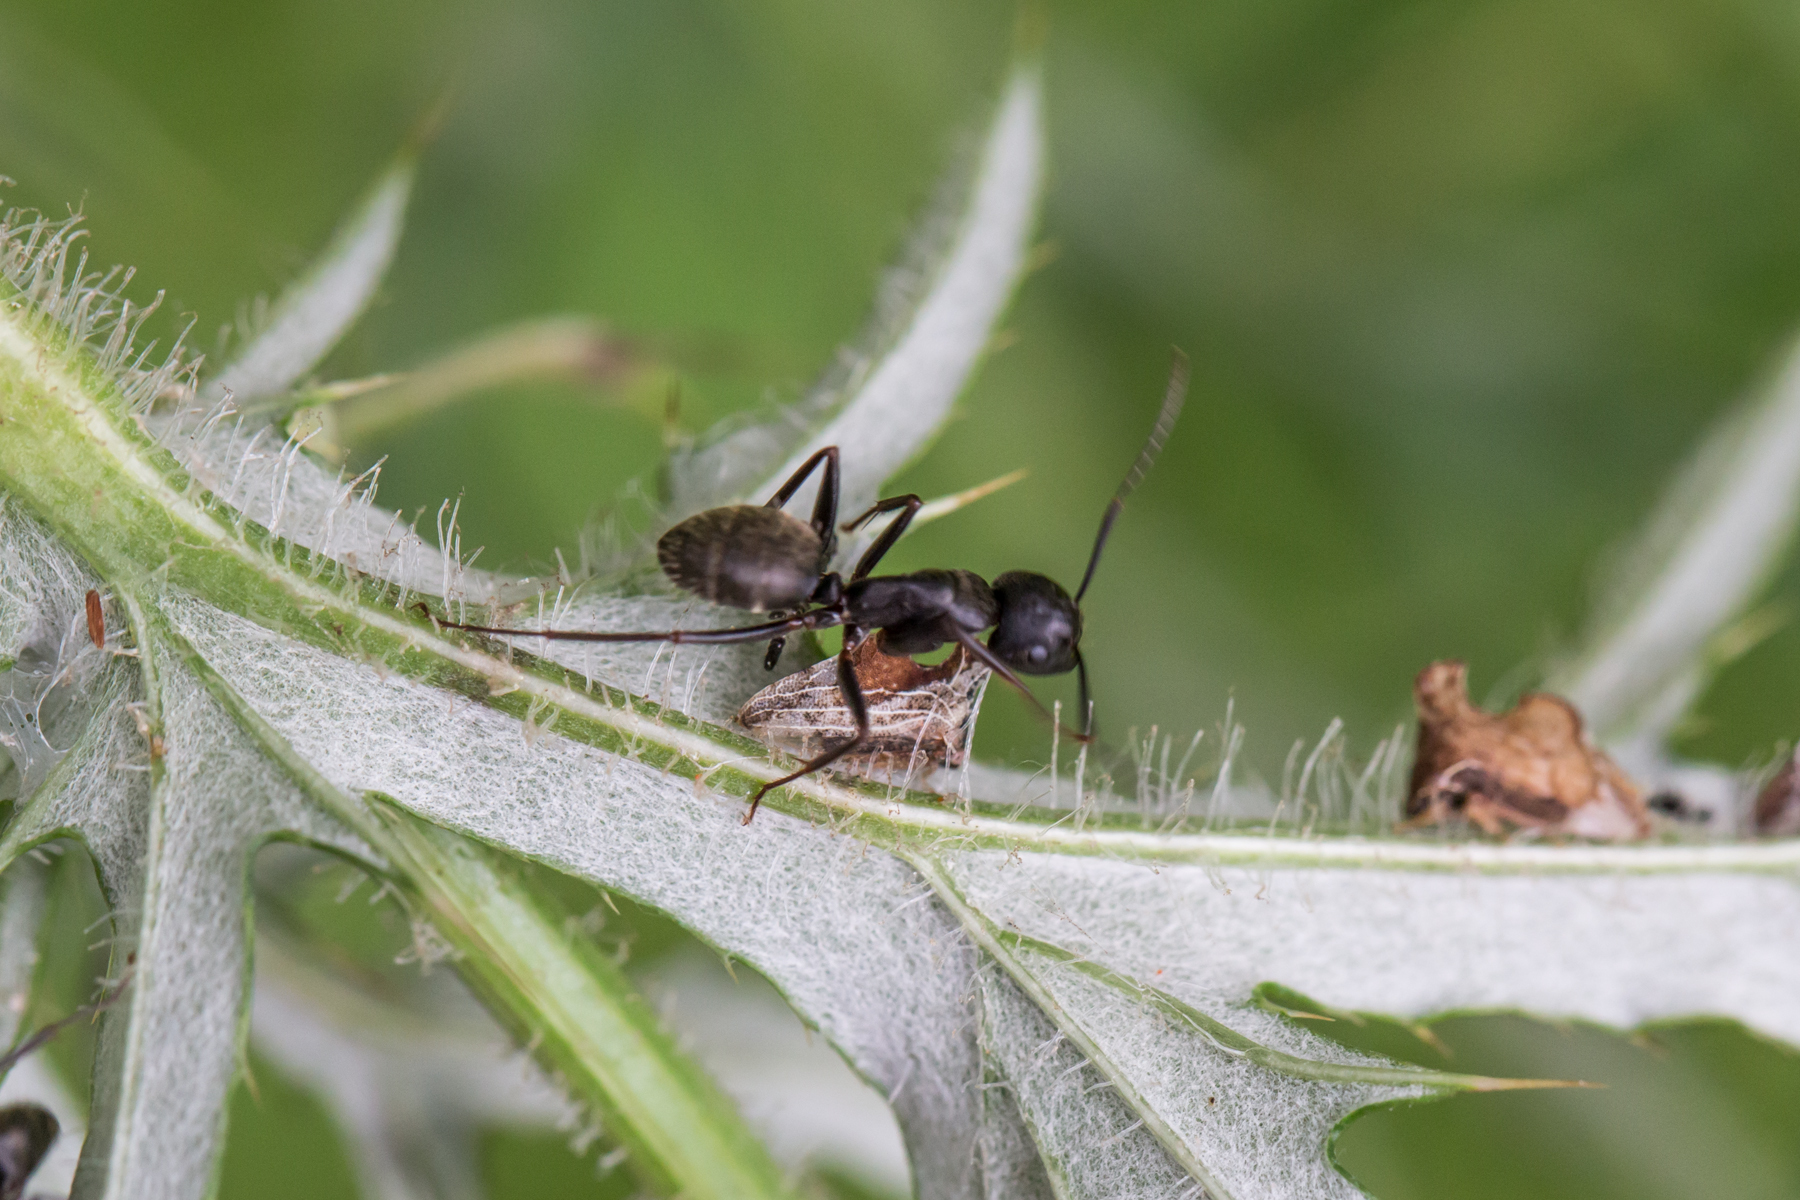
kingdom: Animalia
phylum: Arthropoda
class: Insecta
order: Hymenoptera
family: Formicidae
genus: Camponotus
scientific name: Camponotus pennsylvanicus
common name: Black carpenter ant
